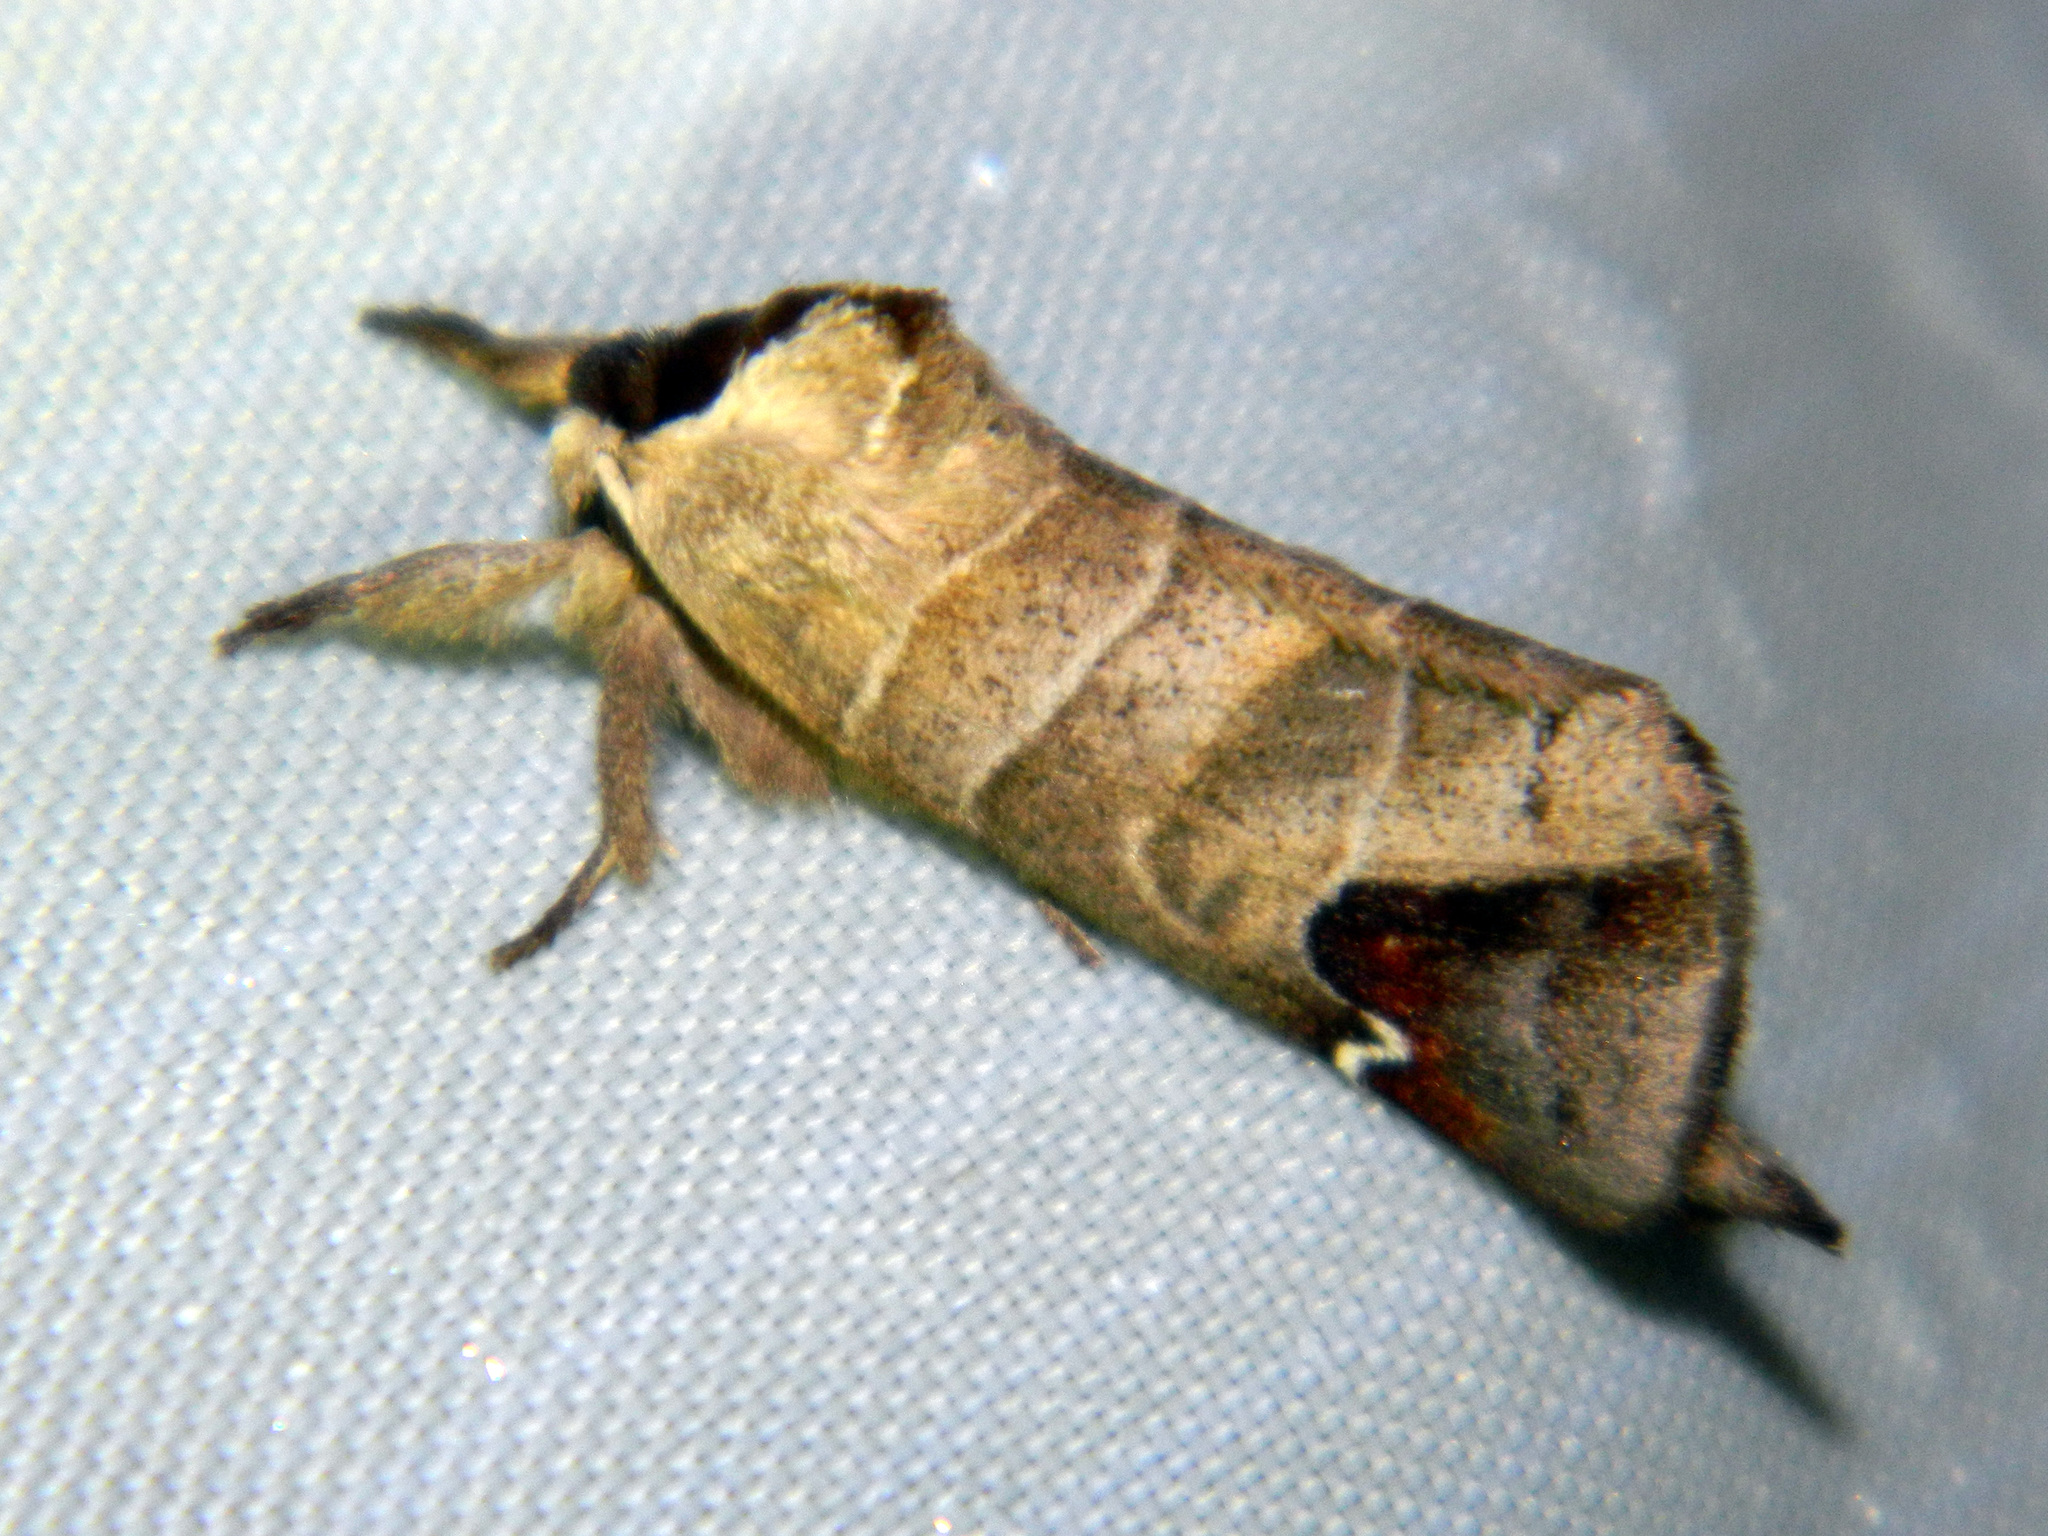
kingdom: Animalia
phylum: Arthropoda
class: Insecta
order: Lepidoptera
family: Notodontidae
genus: Clostera
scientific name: Clostera albosigma
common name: Sigmoid prominent
